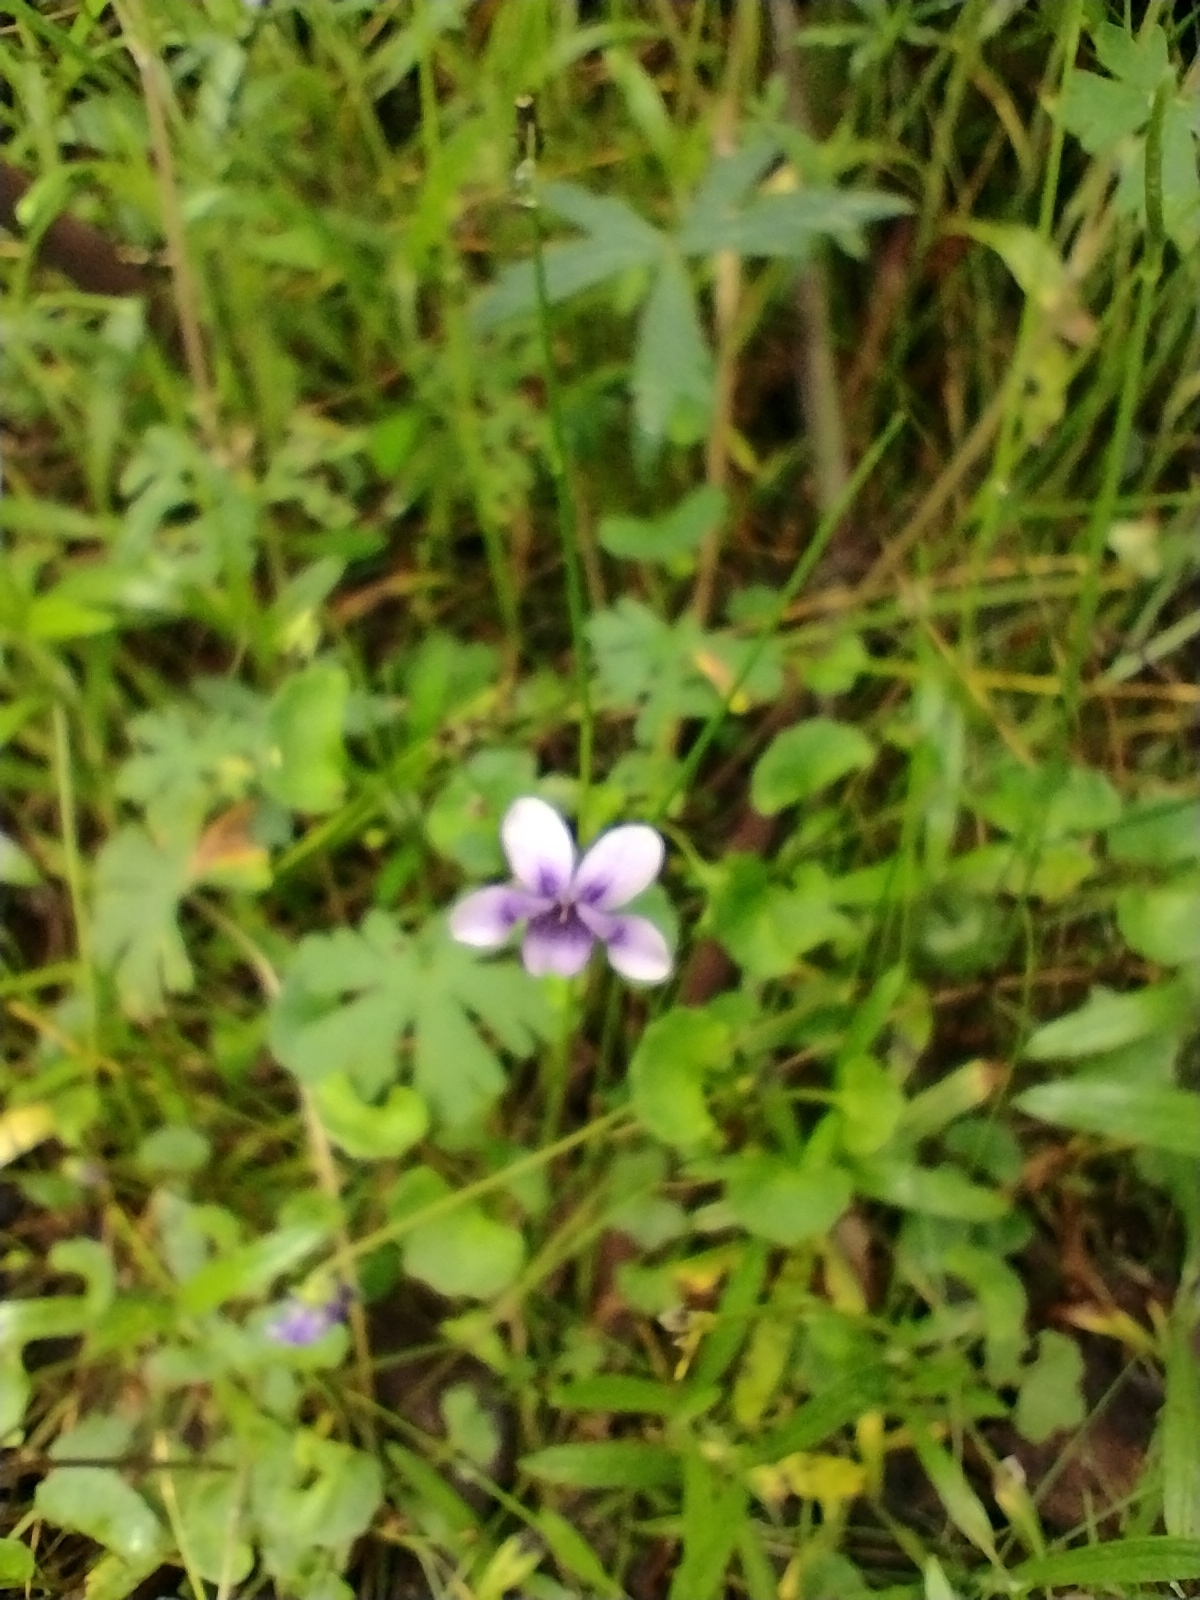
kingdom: Plantae
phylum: Tracheophyta
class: Magnoliopsida
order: Malpighiales
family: Violaceae
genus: Viola
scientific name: Viola hederacea
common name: Australian violet
